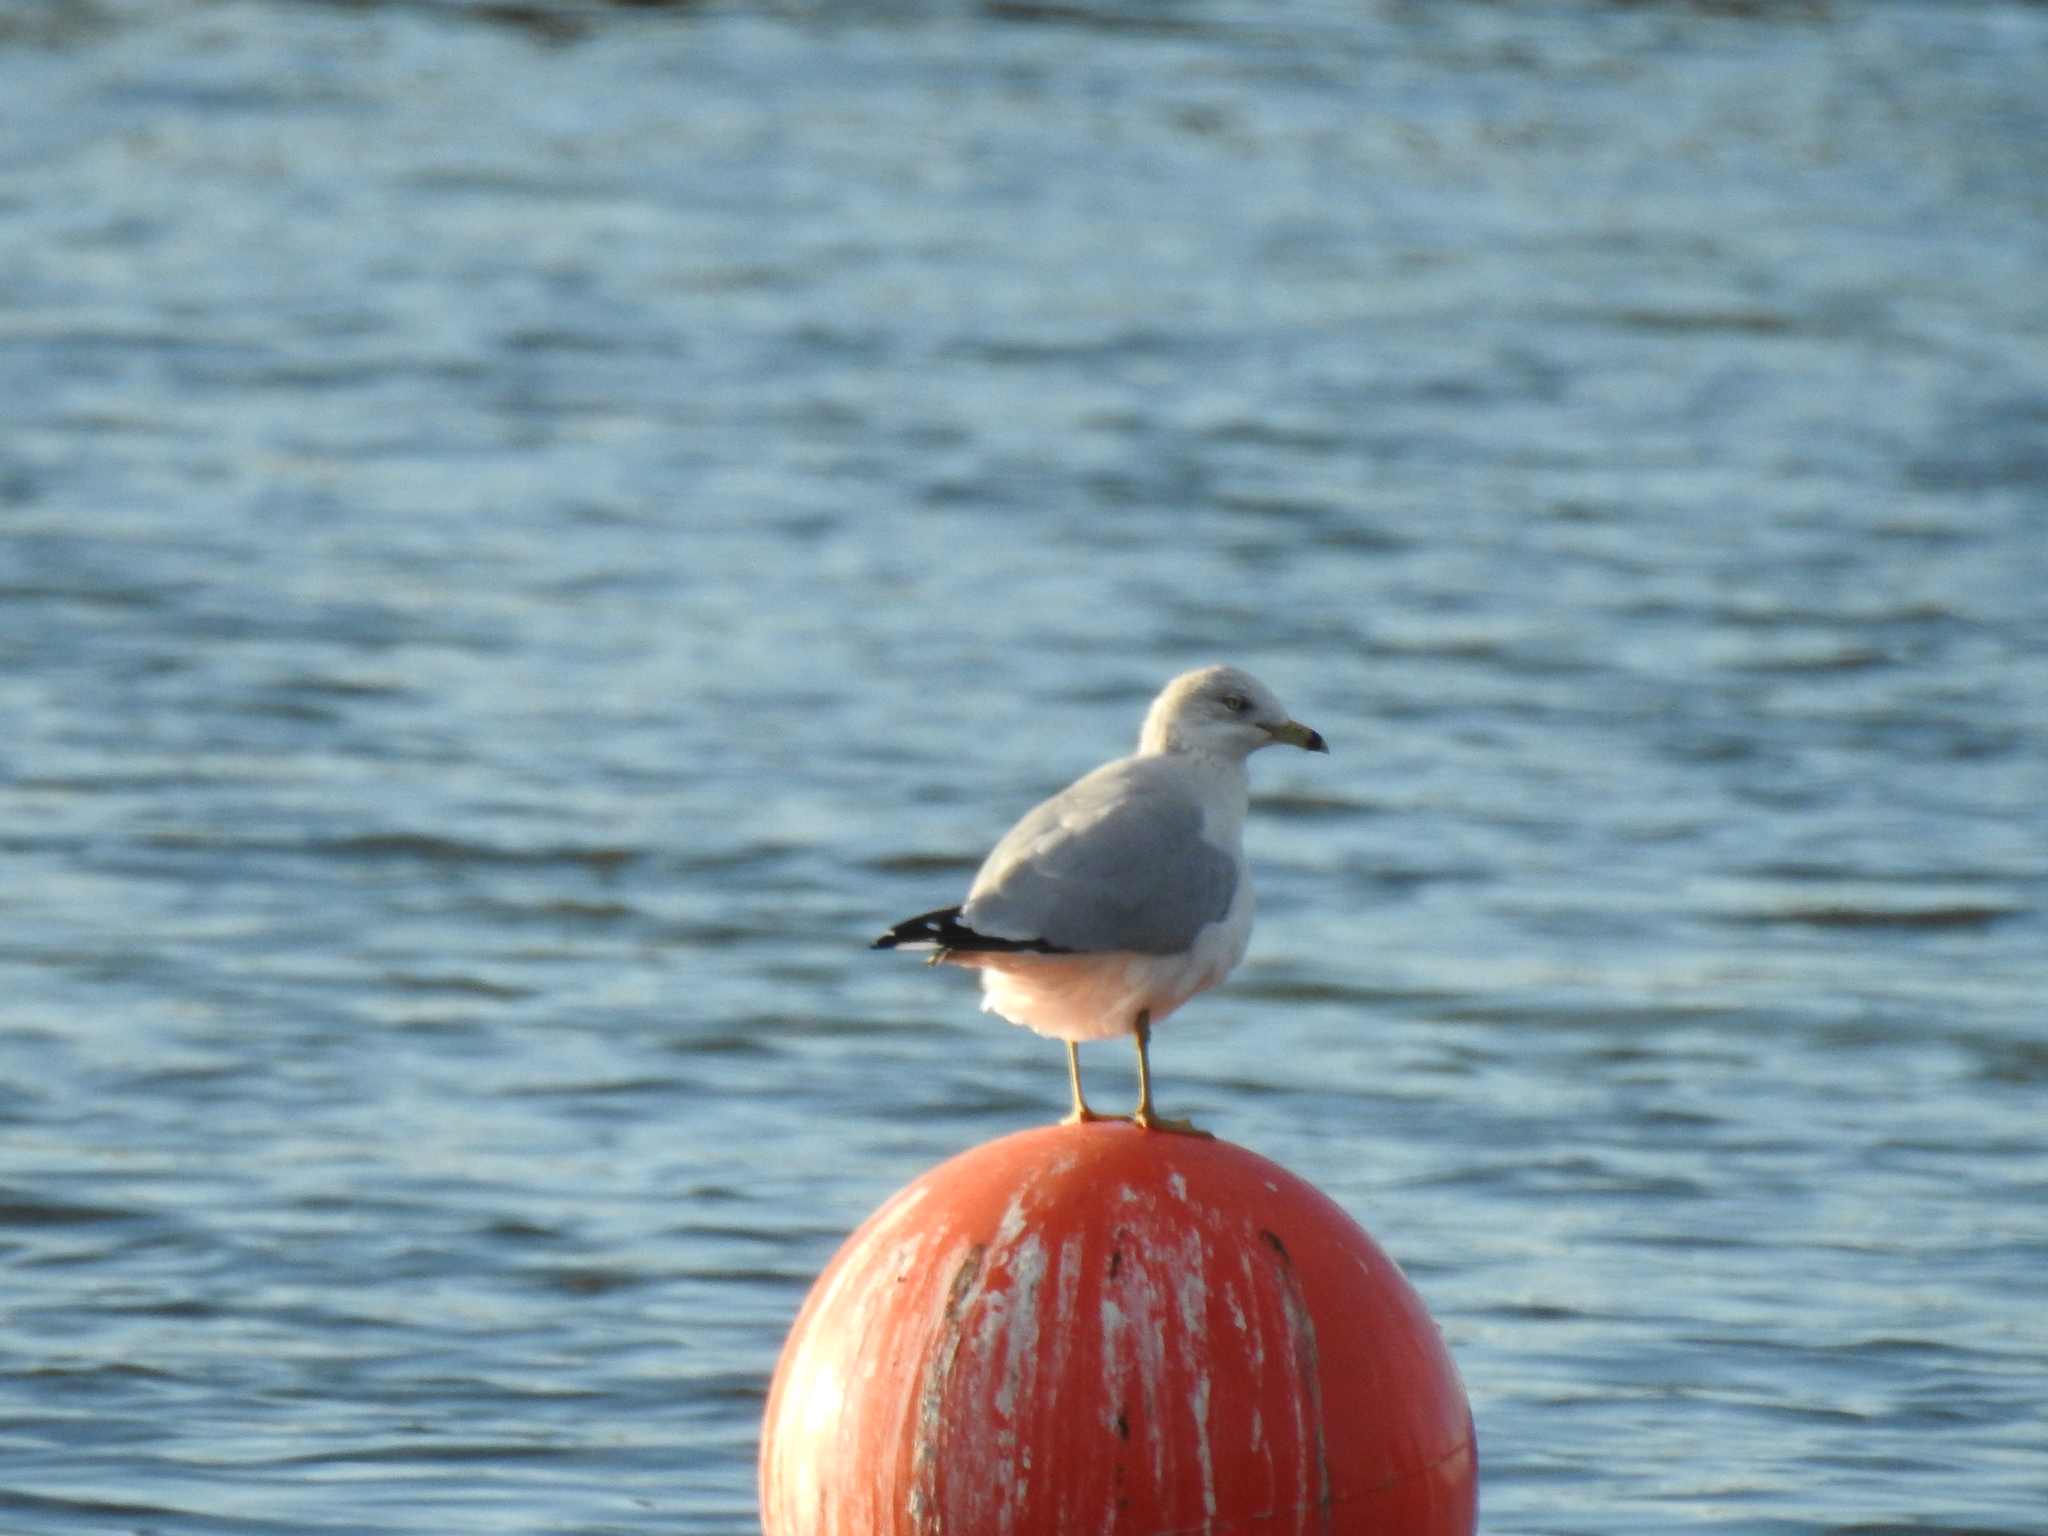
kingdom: Animalia
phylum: Chordata
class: Aves
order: Charadriiformes
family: Laridae
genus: Larus
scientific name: Larus delawarensis
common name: Ring-billed gull
